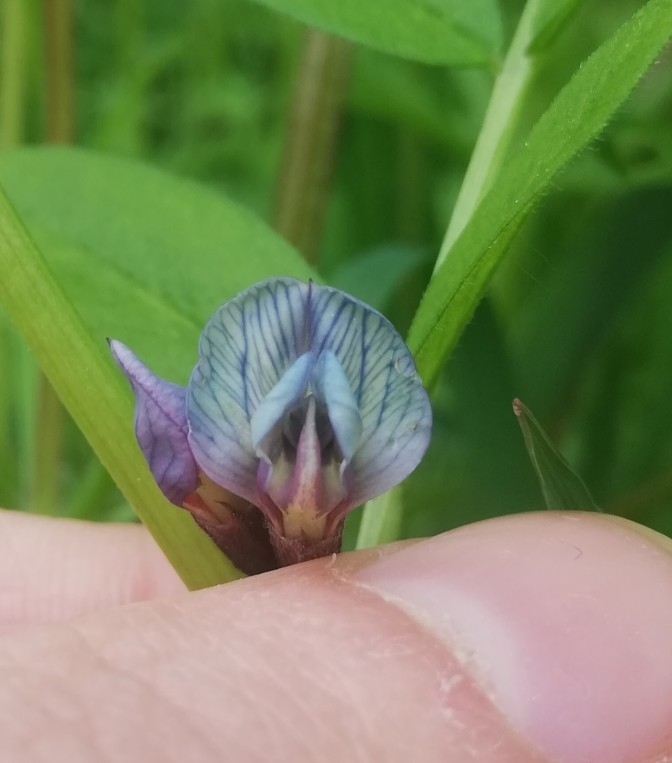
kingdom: Plantae
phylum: Tracheophyta
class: Magnoliopsida
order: Fabales
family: Fabaceae
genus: Vicia
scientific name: Vicia sepium
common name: Bush vetch
